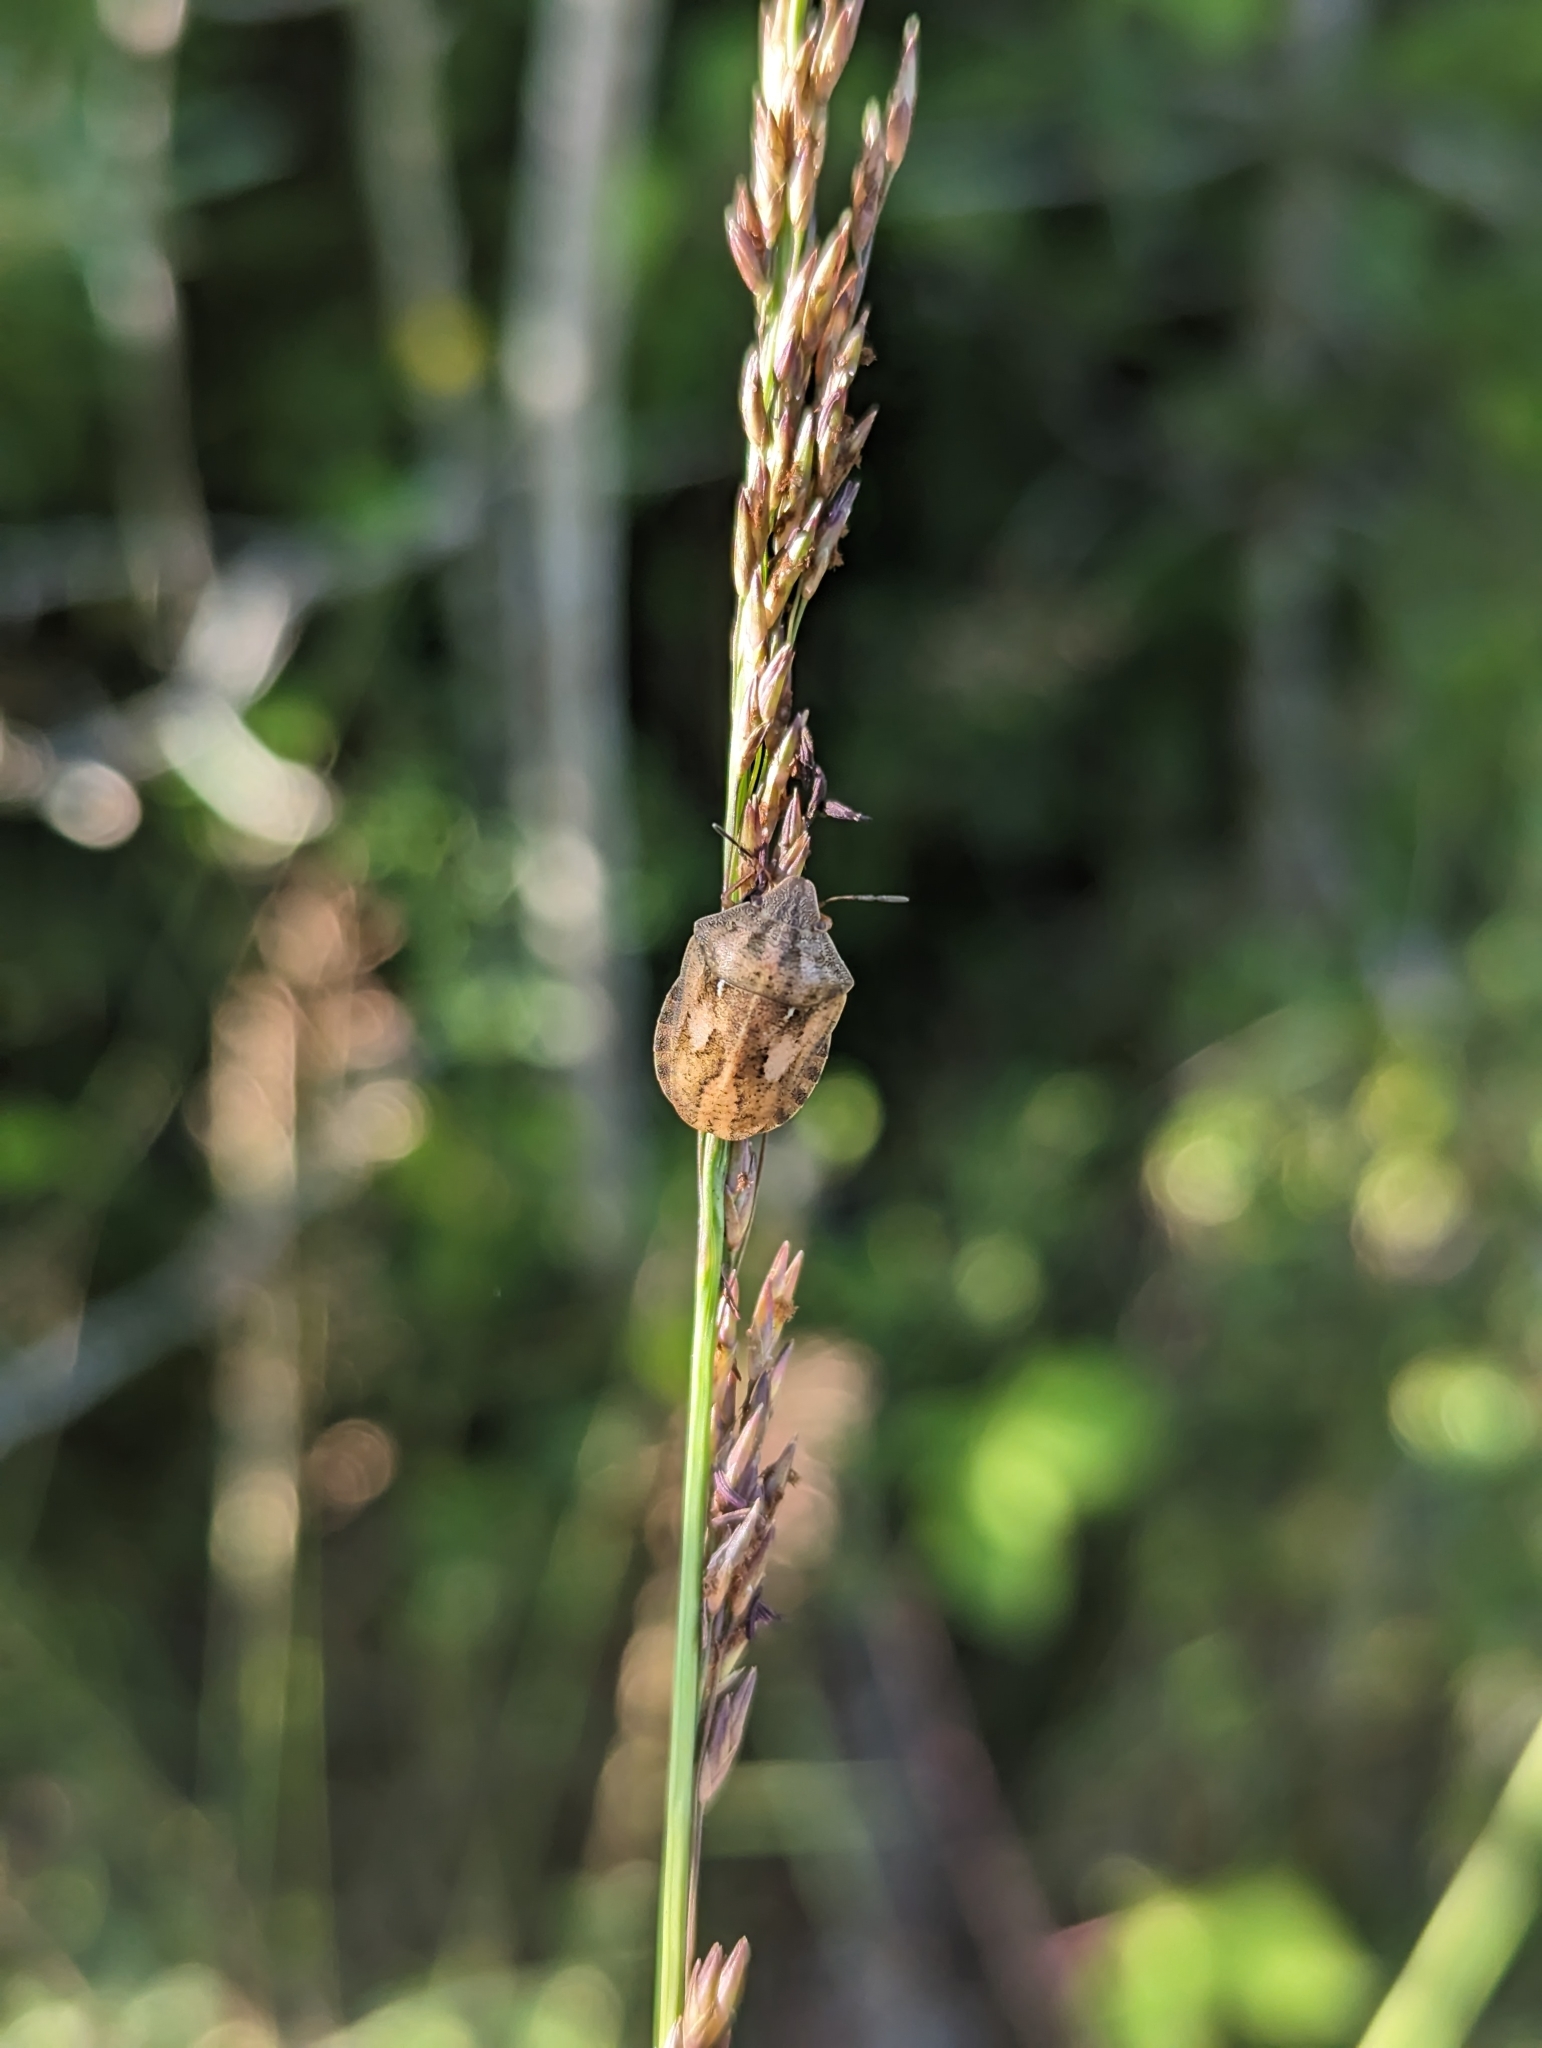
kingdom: Animalia
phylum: Arthropoda
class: Insecta
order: Hemiptera
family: Scutelleridae
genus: Eurygaster
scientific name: Eurygaster testudinaria
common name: Tortoise bug
